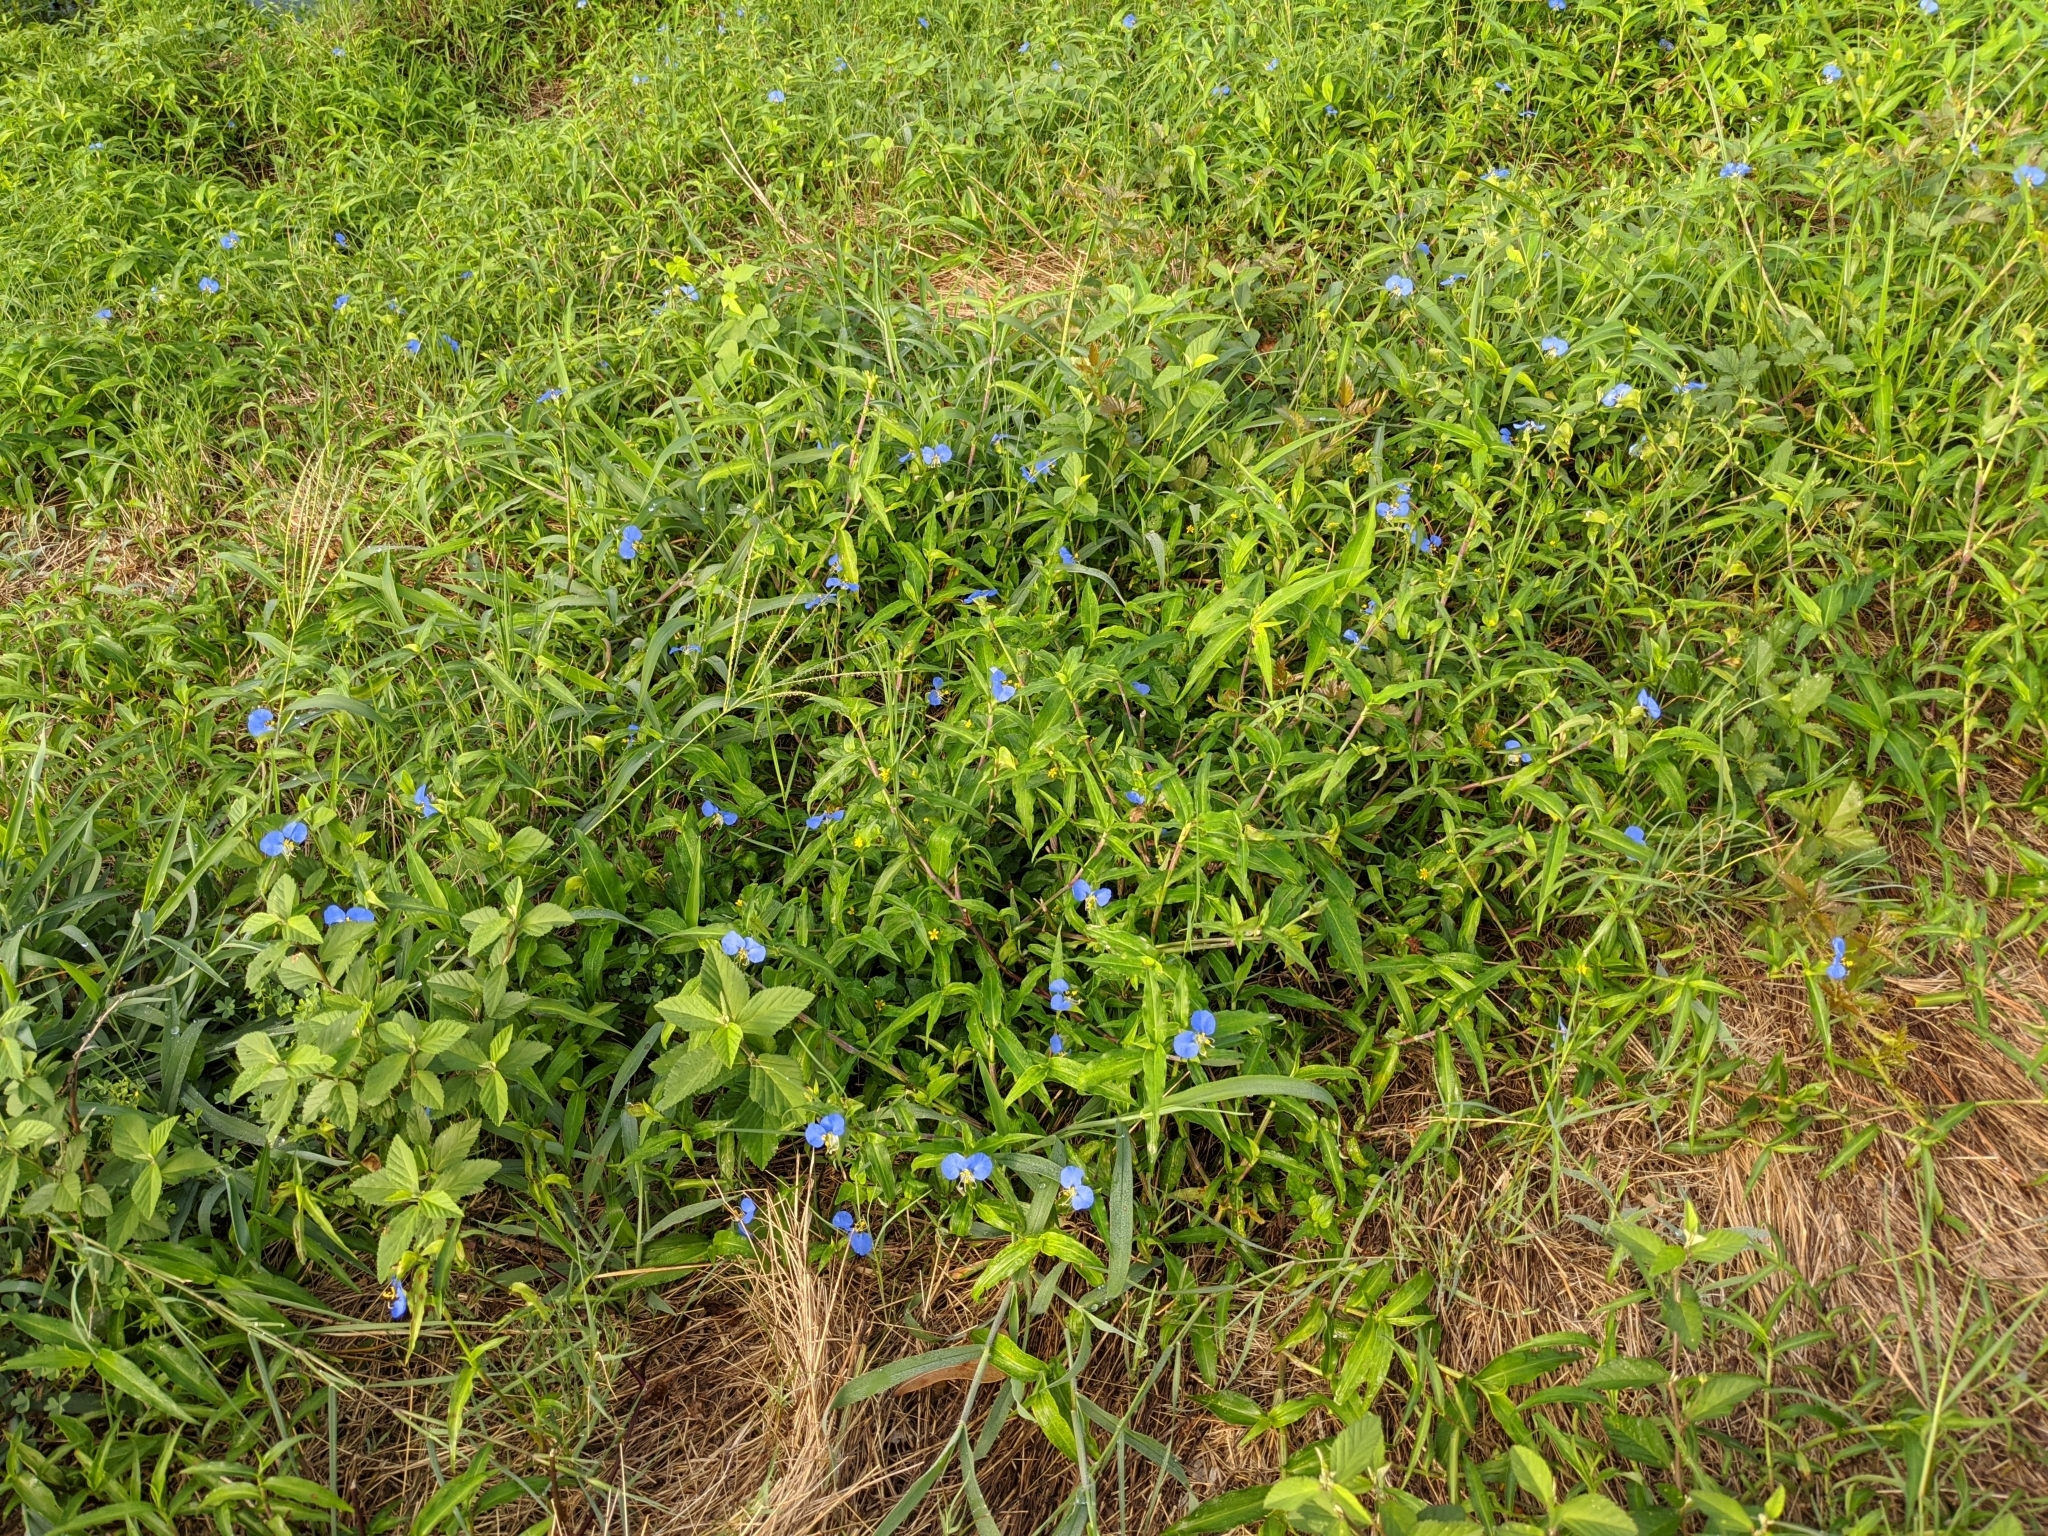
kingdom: Plantae
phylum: Tracheophyta
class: Liliopsida
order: Commelinales
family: Commelinaceae
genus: Commelina
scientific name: Commelina erecta
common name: Blousel blommetjie
